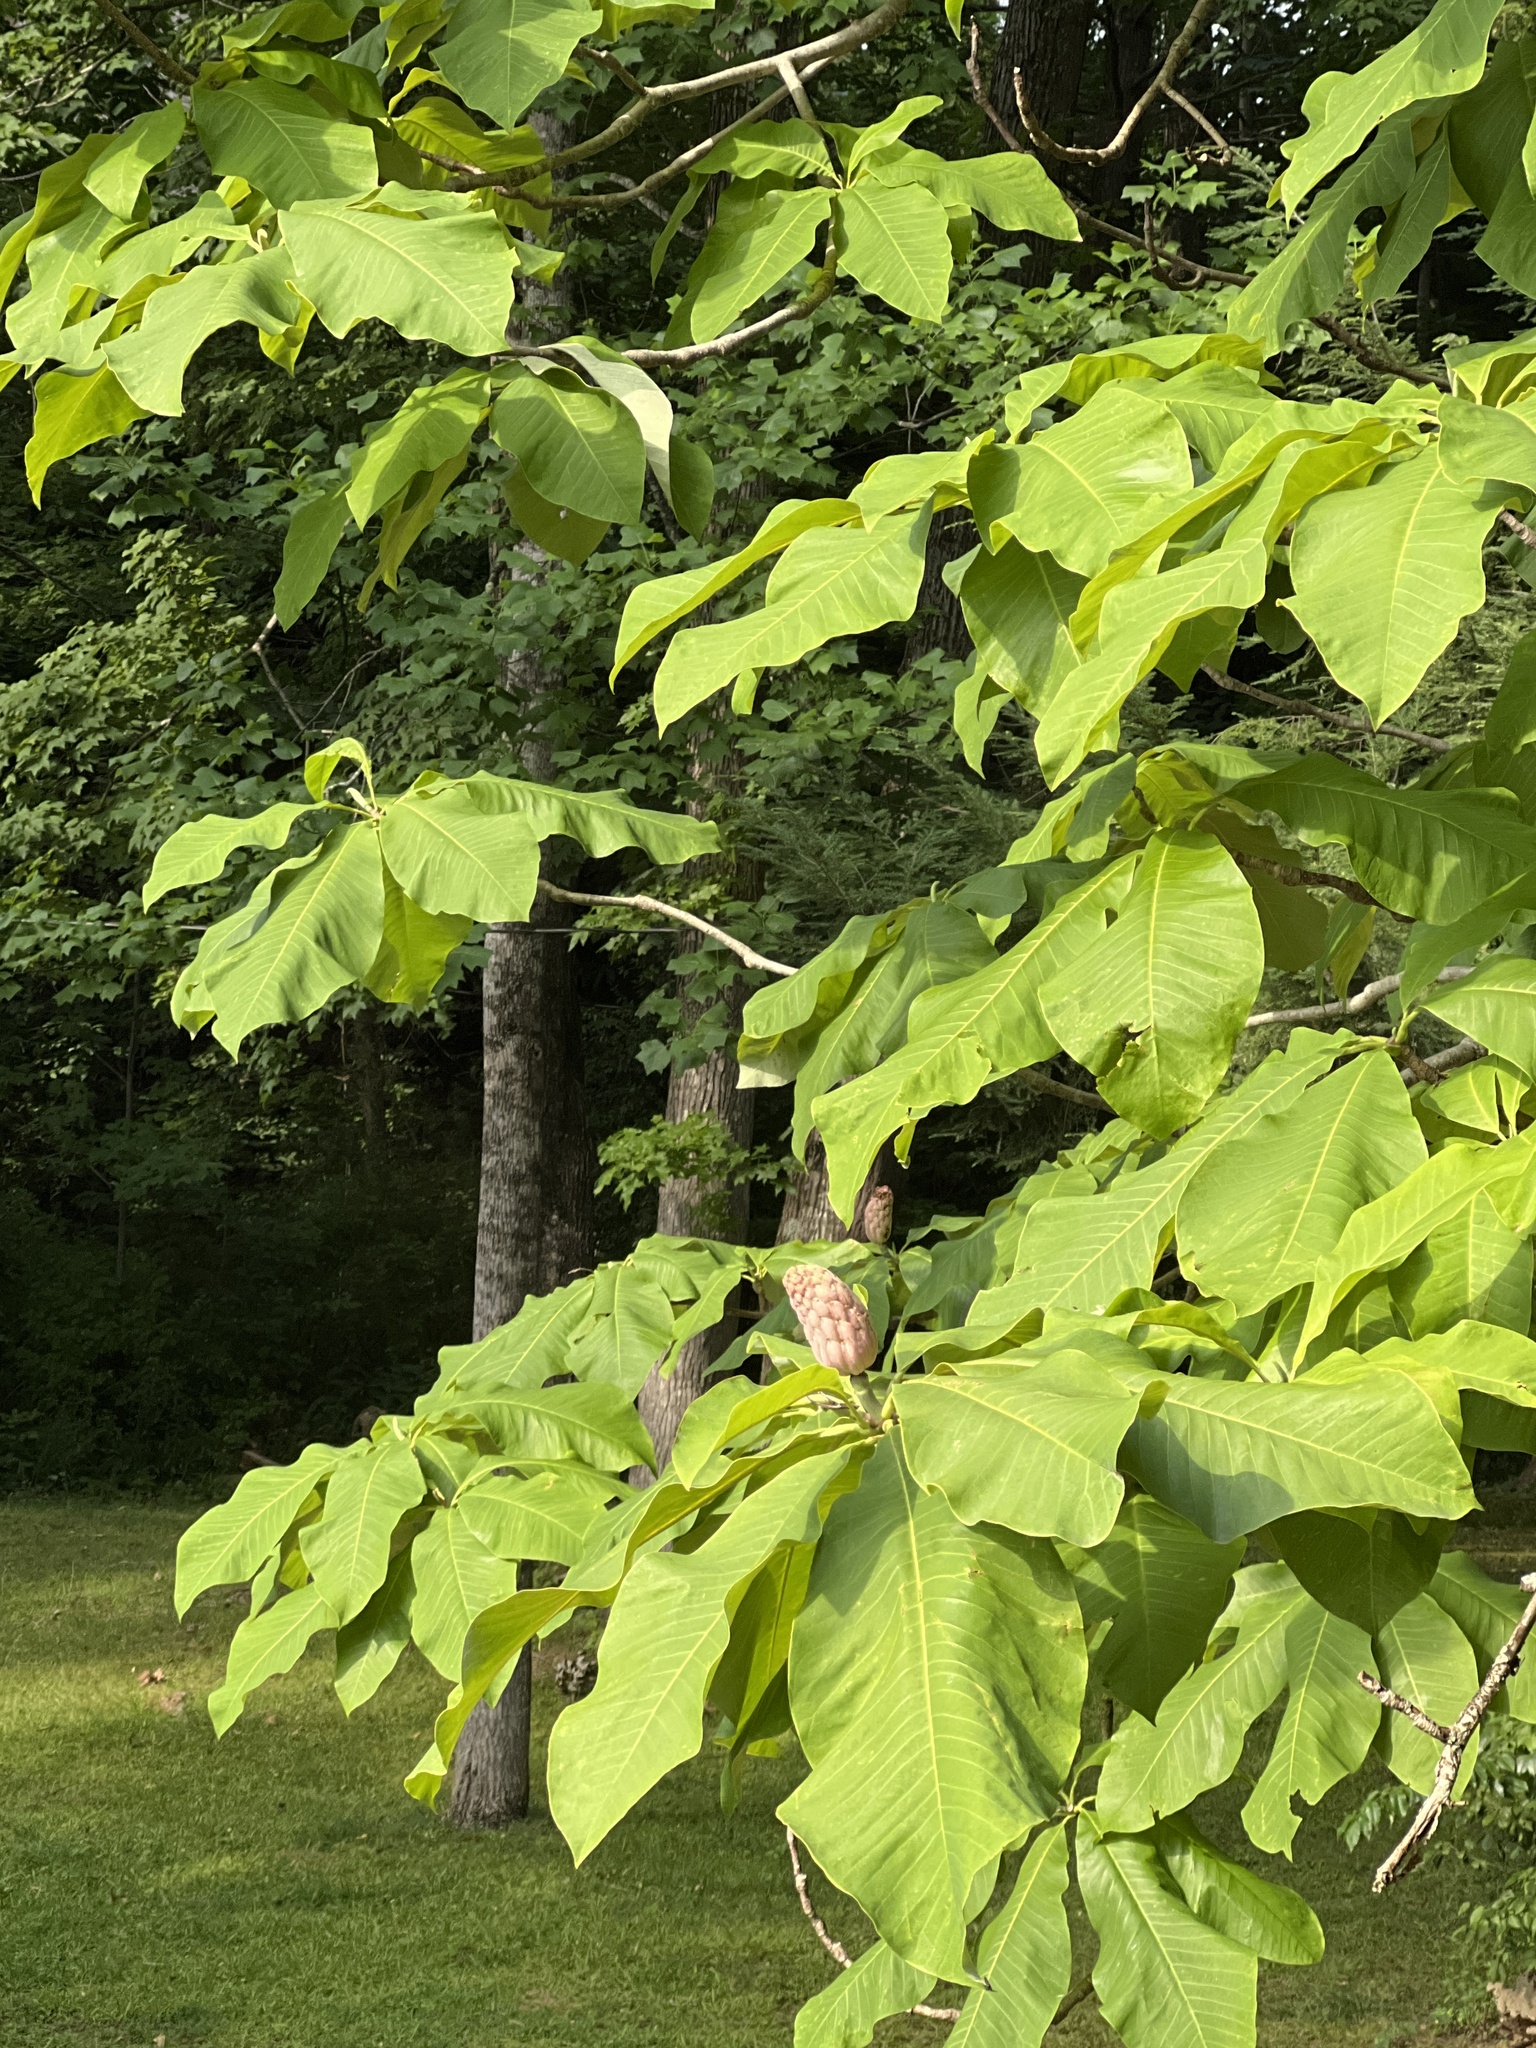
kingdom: Plantae
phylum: Tracheophyta
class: Magnoliopsida
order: Magnoliales
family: Magnoliaceae
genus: Magnolia
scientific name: Magnolia tripetala
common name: Umbrella magnolia
